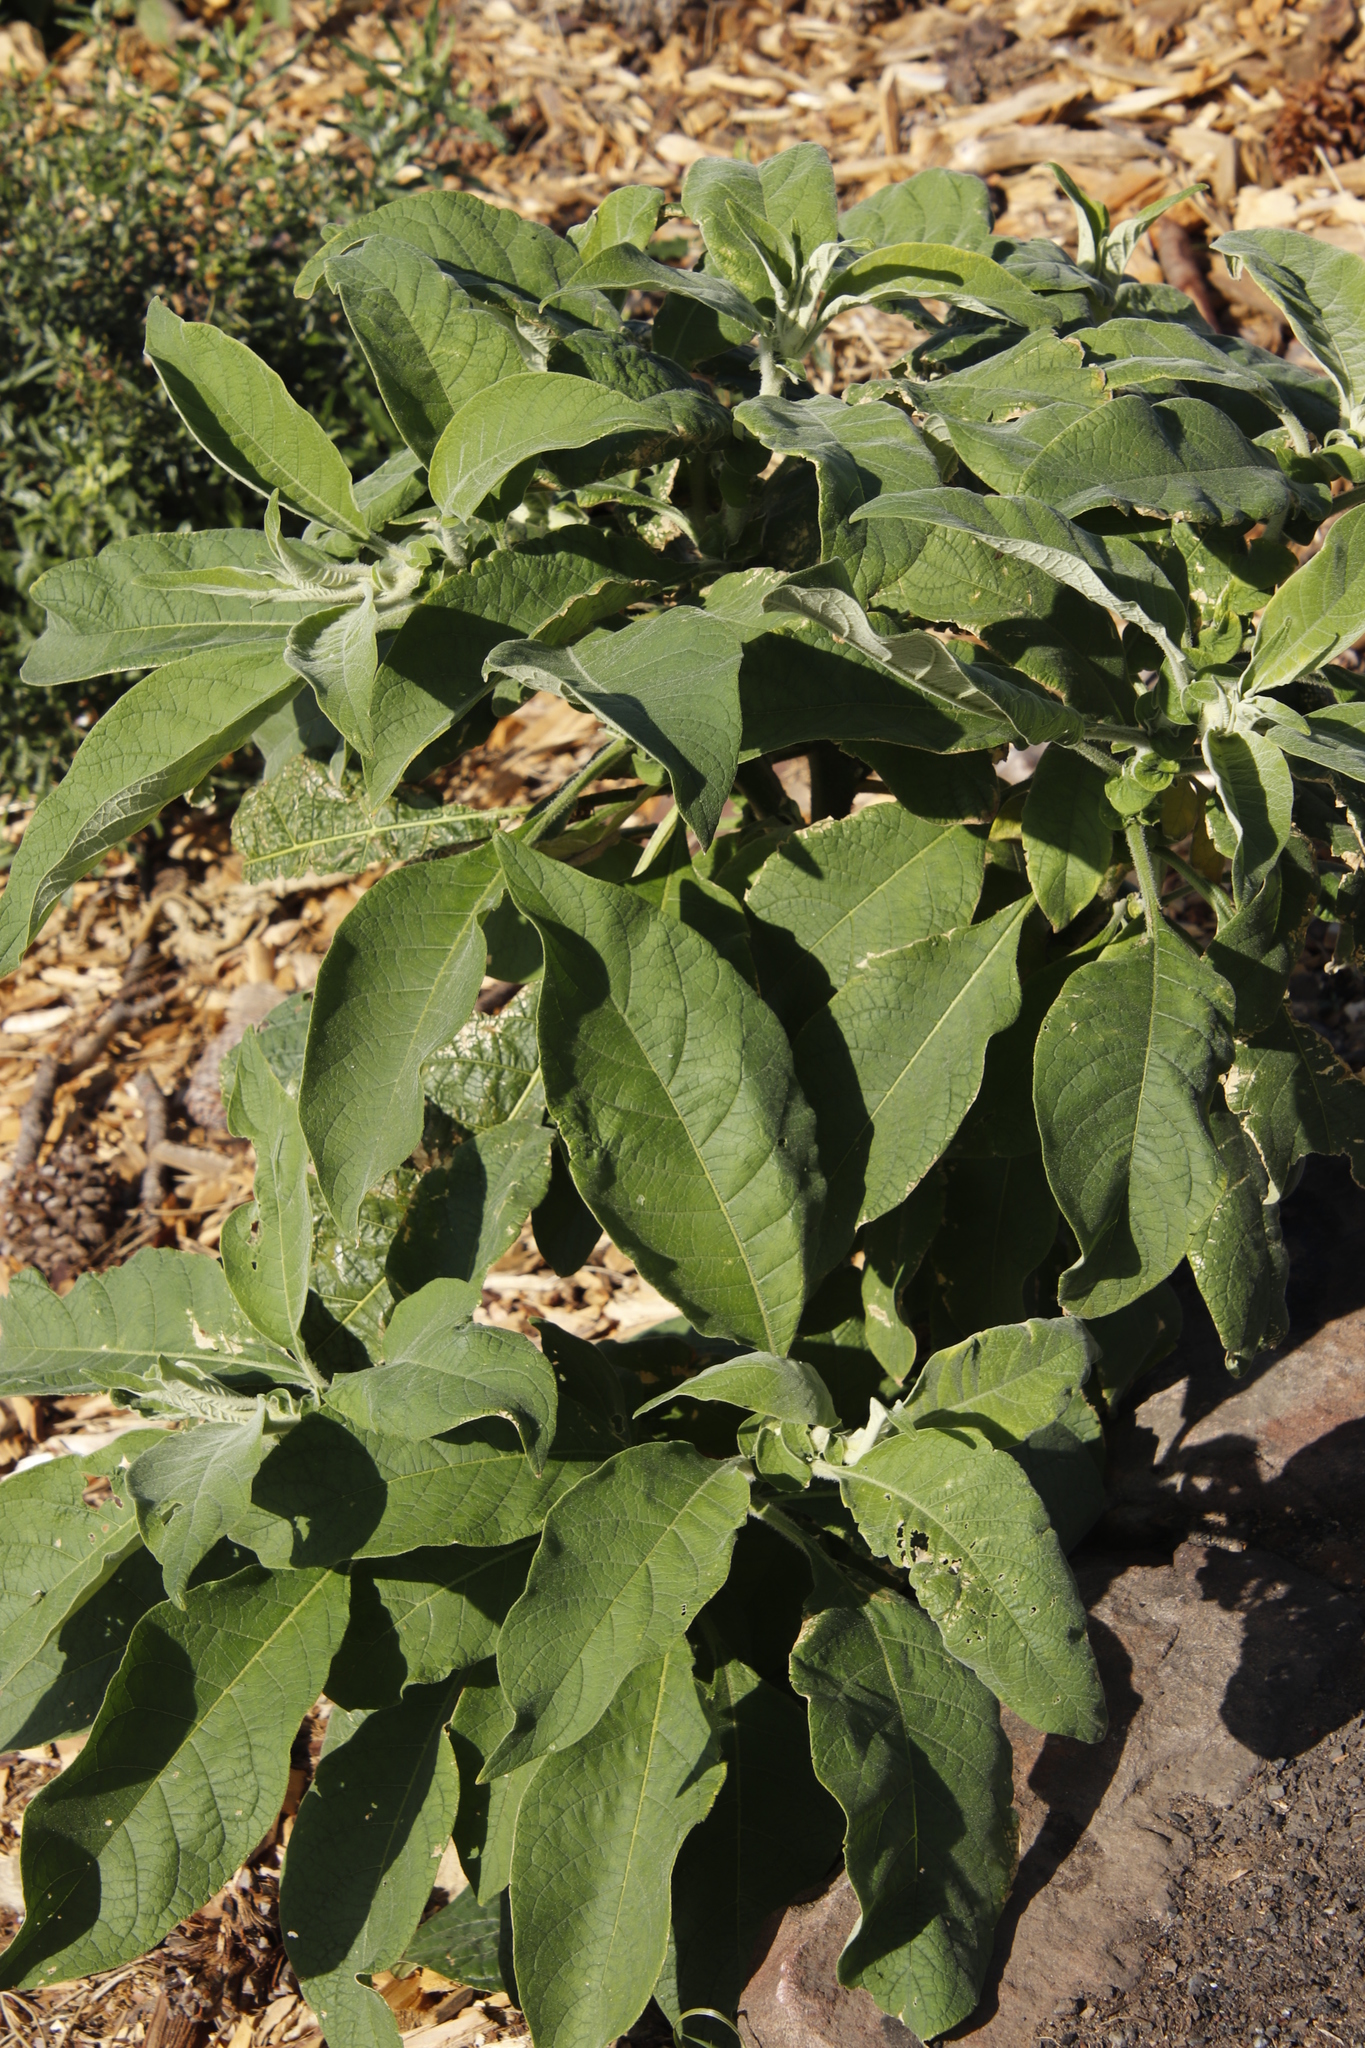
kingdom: Plantae
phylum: Tracheophyta
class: Magnoliopsida
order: Solanales
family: Solanaceae
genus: Solanum
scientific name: Solanum mauritianum
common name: Earleaf nightshade
